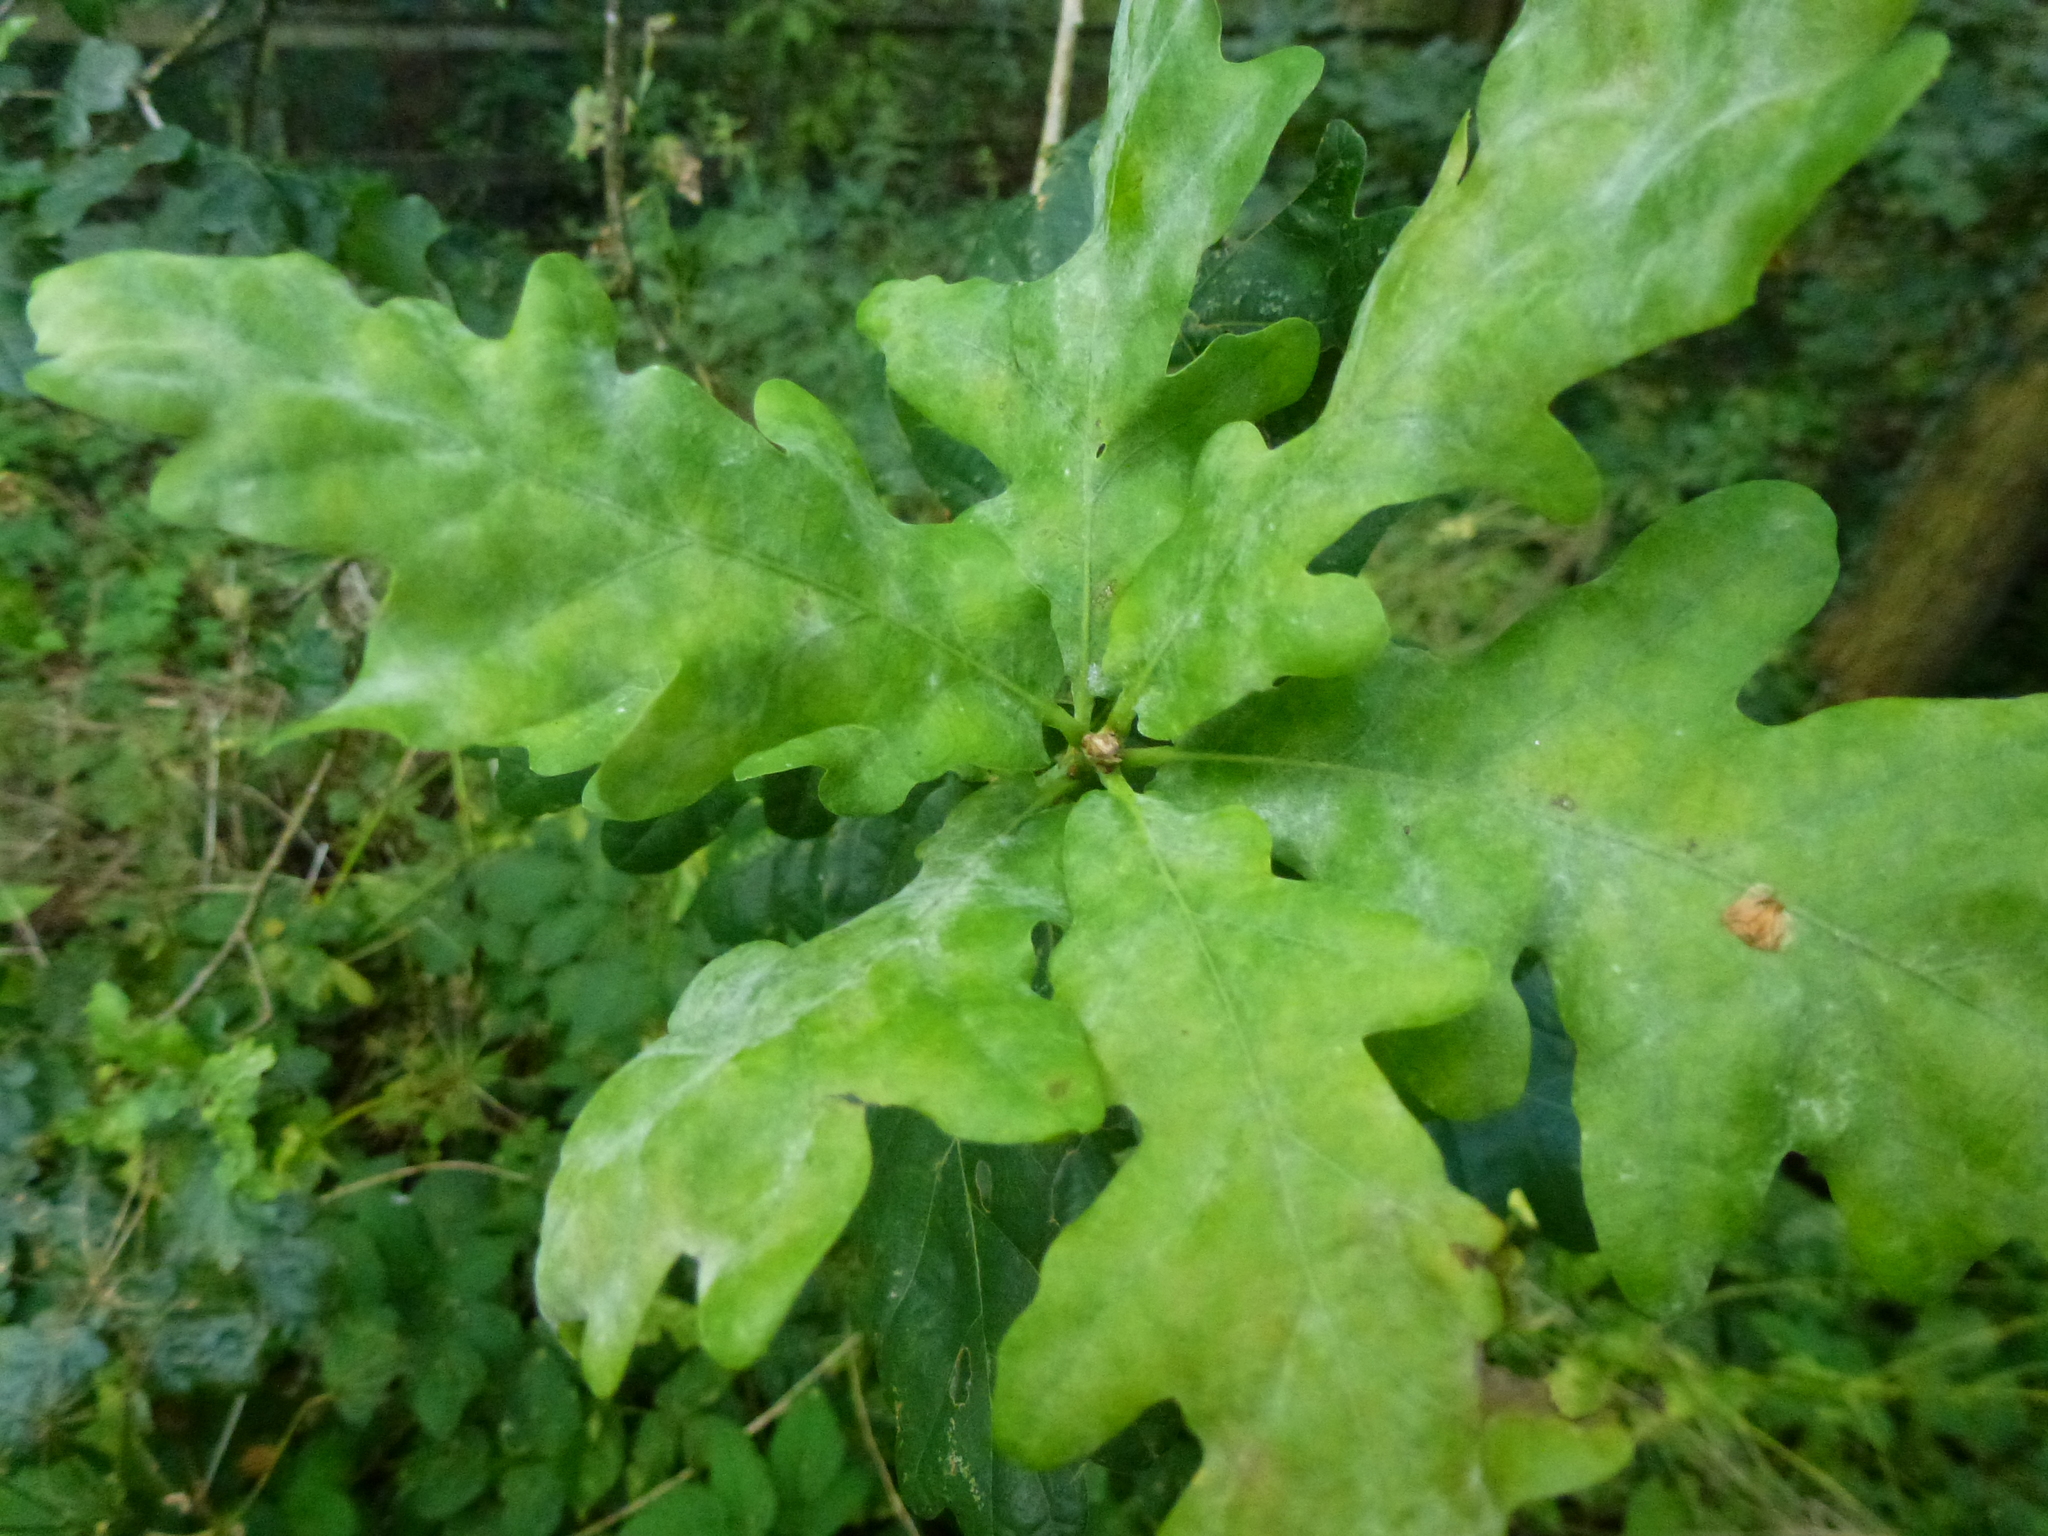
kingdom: Fungi
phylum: Ascomycota
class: Leotiomycetes
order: Helotiales
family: Erysiphaceae
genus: Erysiphe
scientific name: Erysiphe alphitoides
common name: Oak mildew
